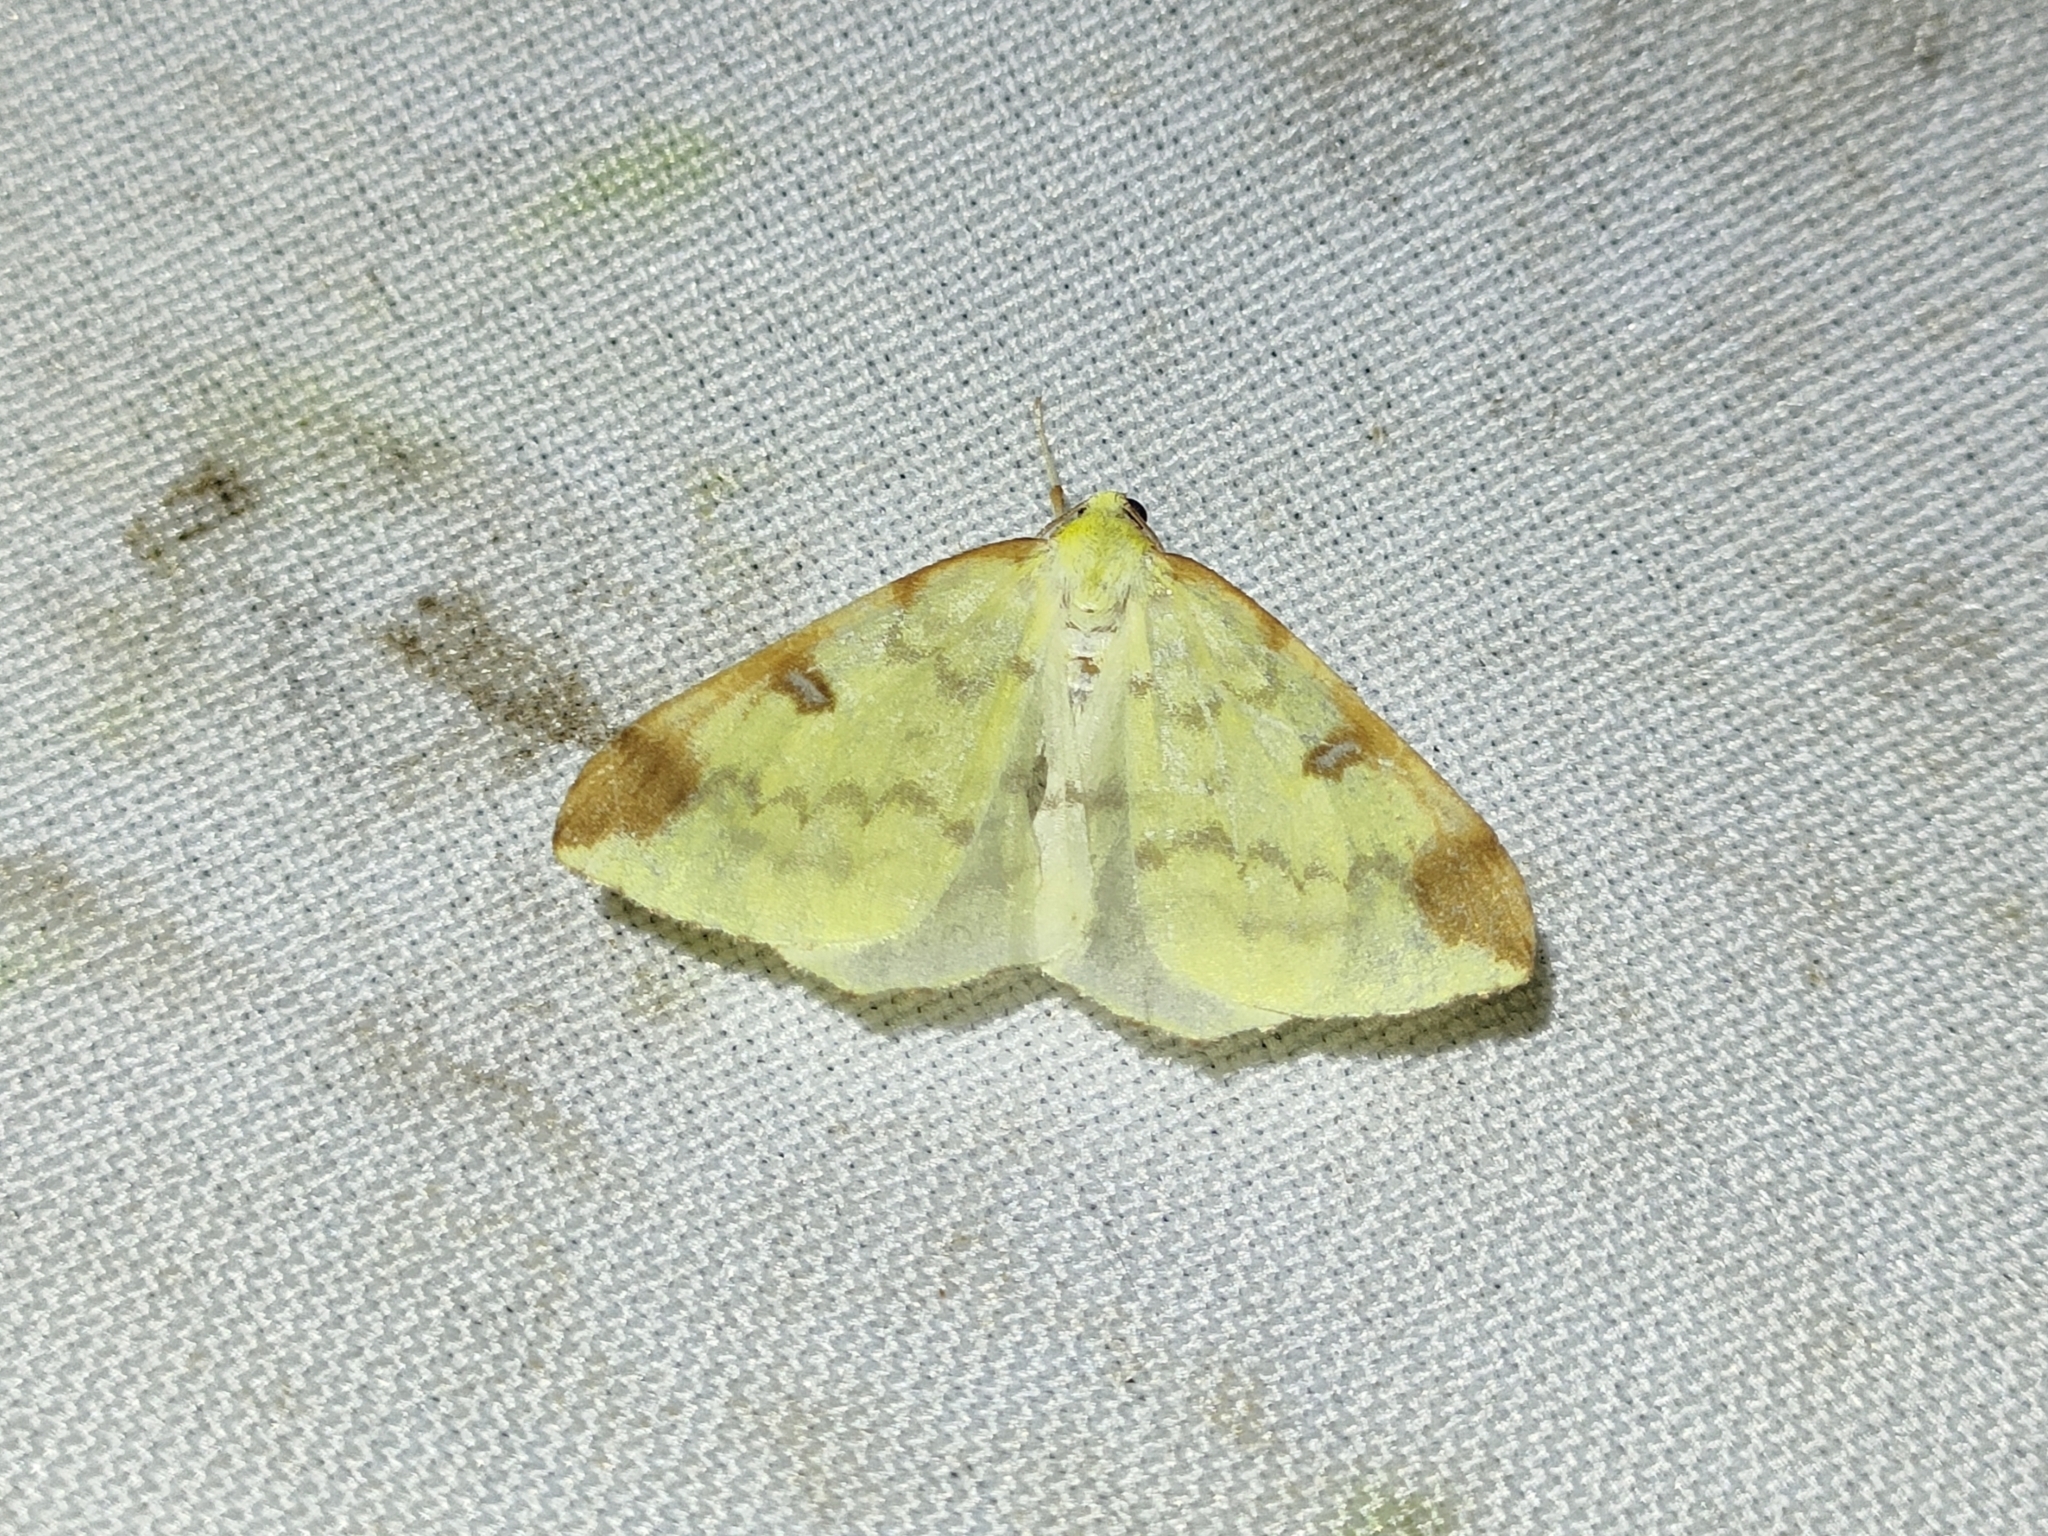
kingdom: Animalia
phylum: Arthropoda
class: Insecta
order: Lepidoptera
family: Geometridae
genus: Opisthograptis
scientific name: Opisthograptis luteolata
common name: Brimstone moth
